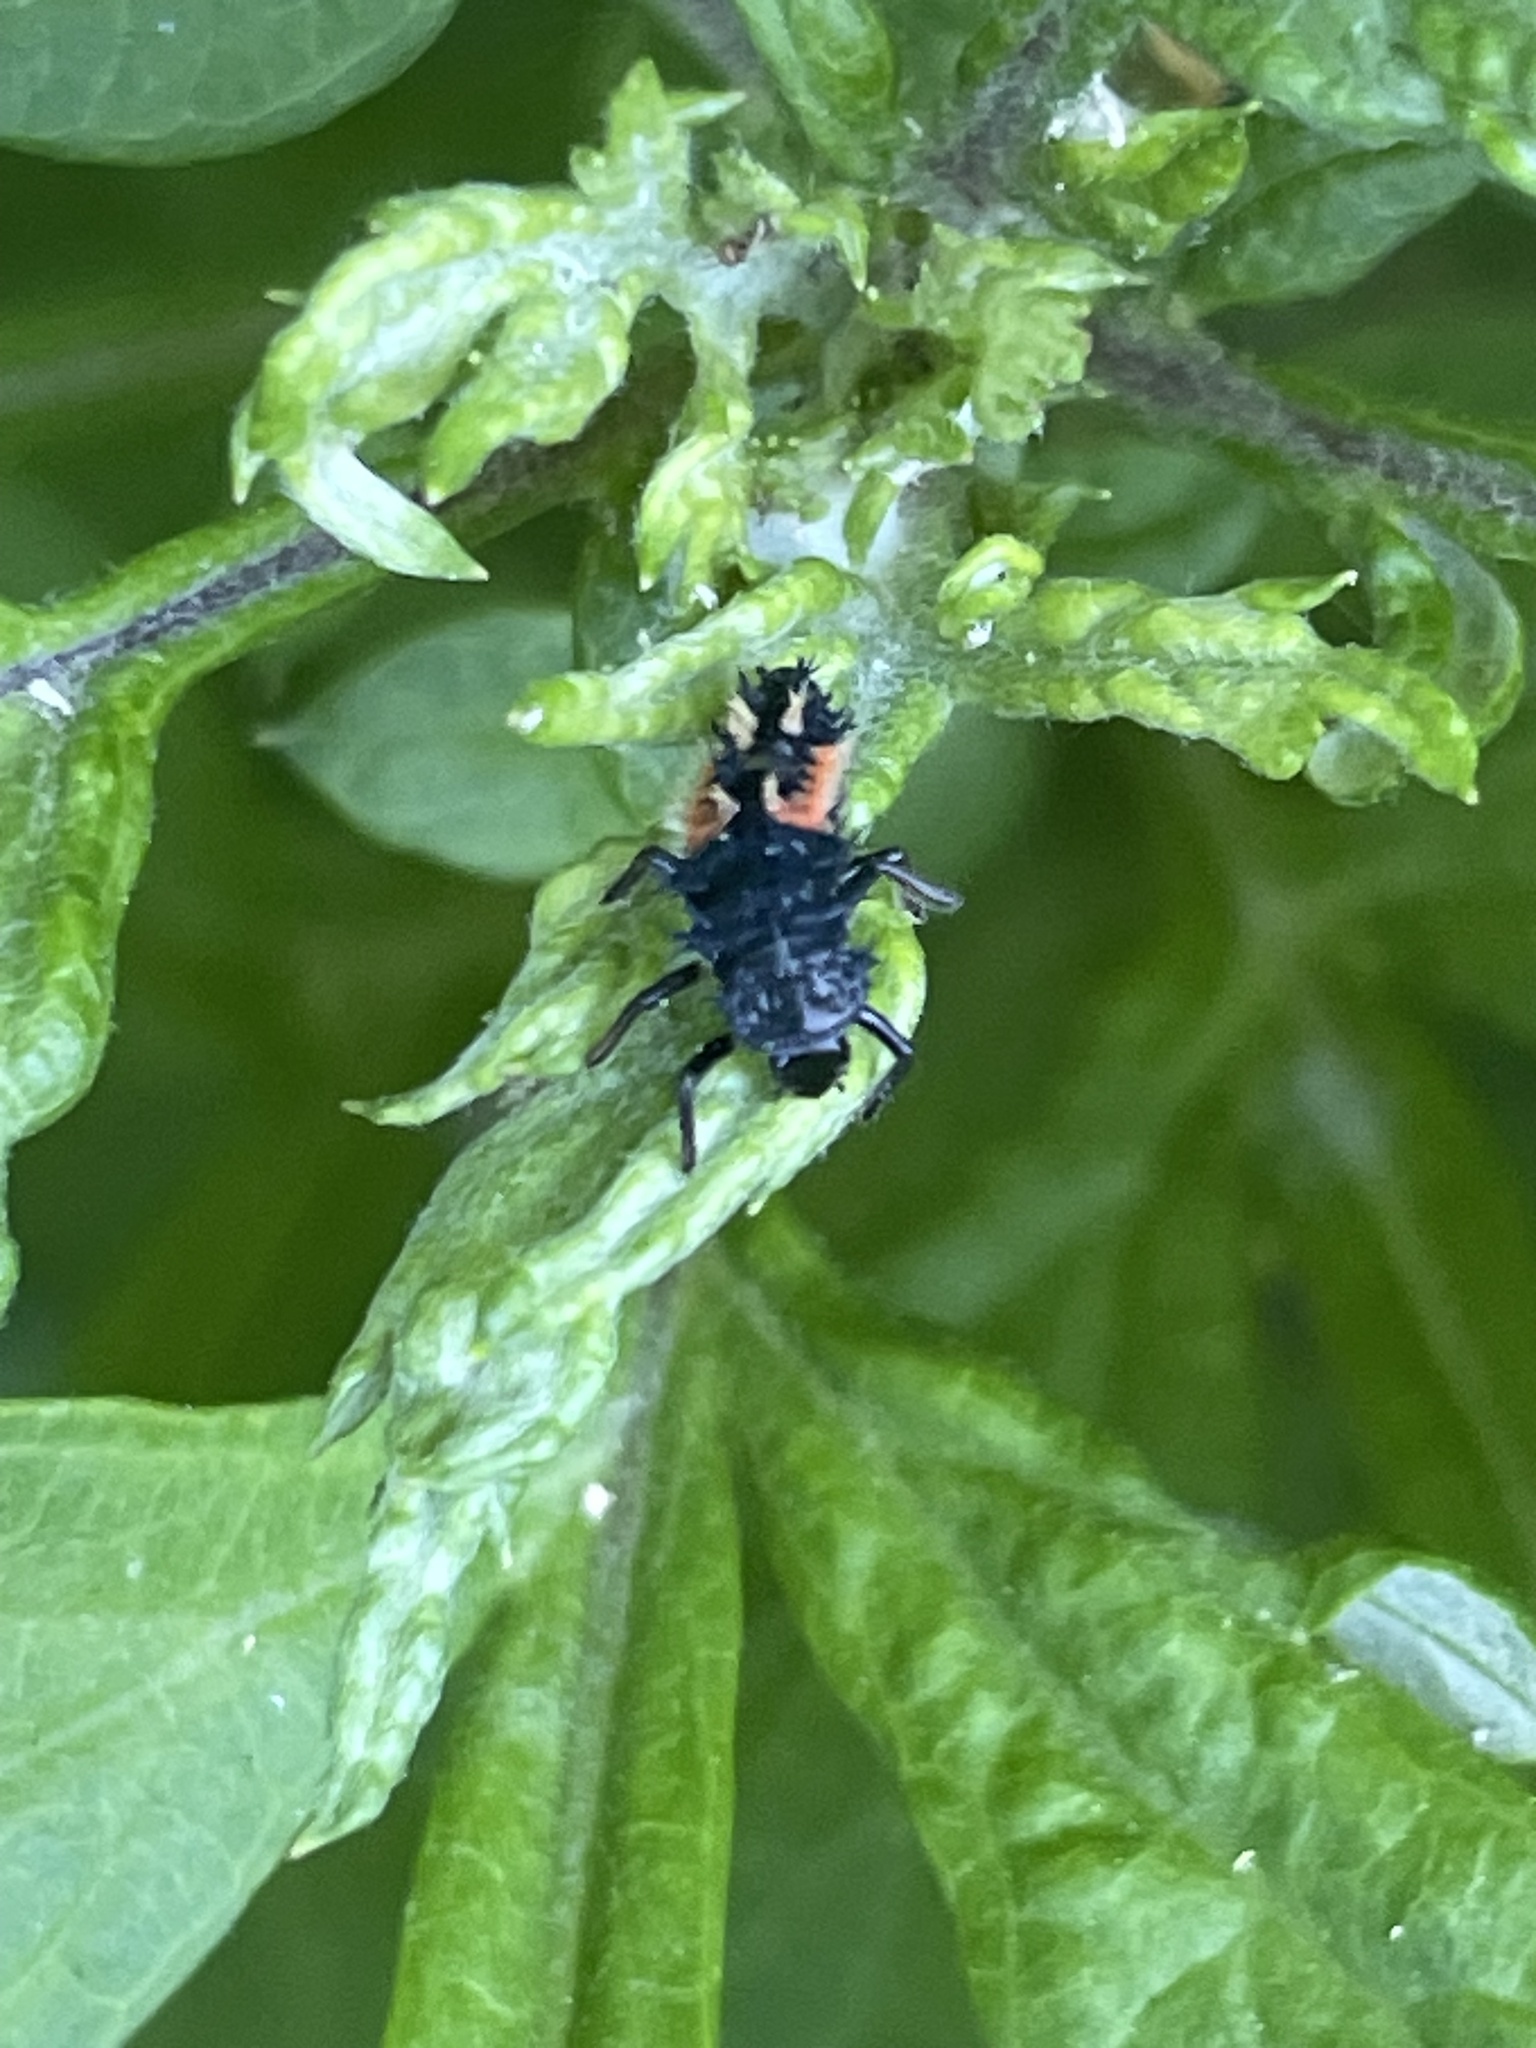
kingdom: Animalia
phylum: Arthropoda
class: Insecta
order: Coleoptera
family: Coccinellidae
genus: Harmonia
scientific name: Harmonia axyridis
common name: Harlequin ladybird
